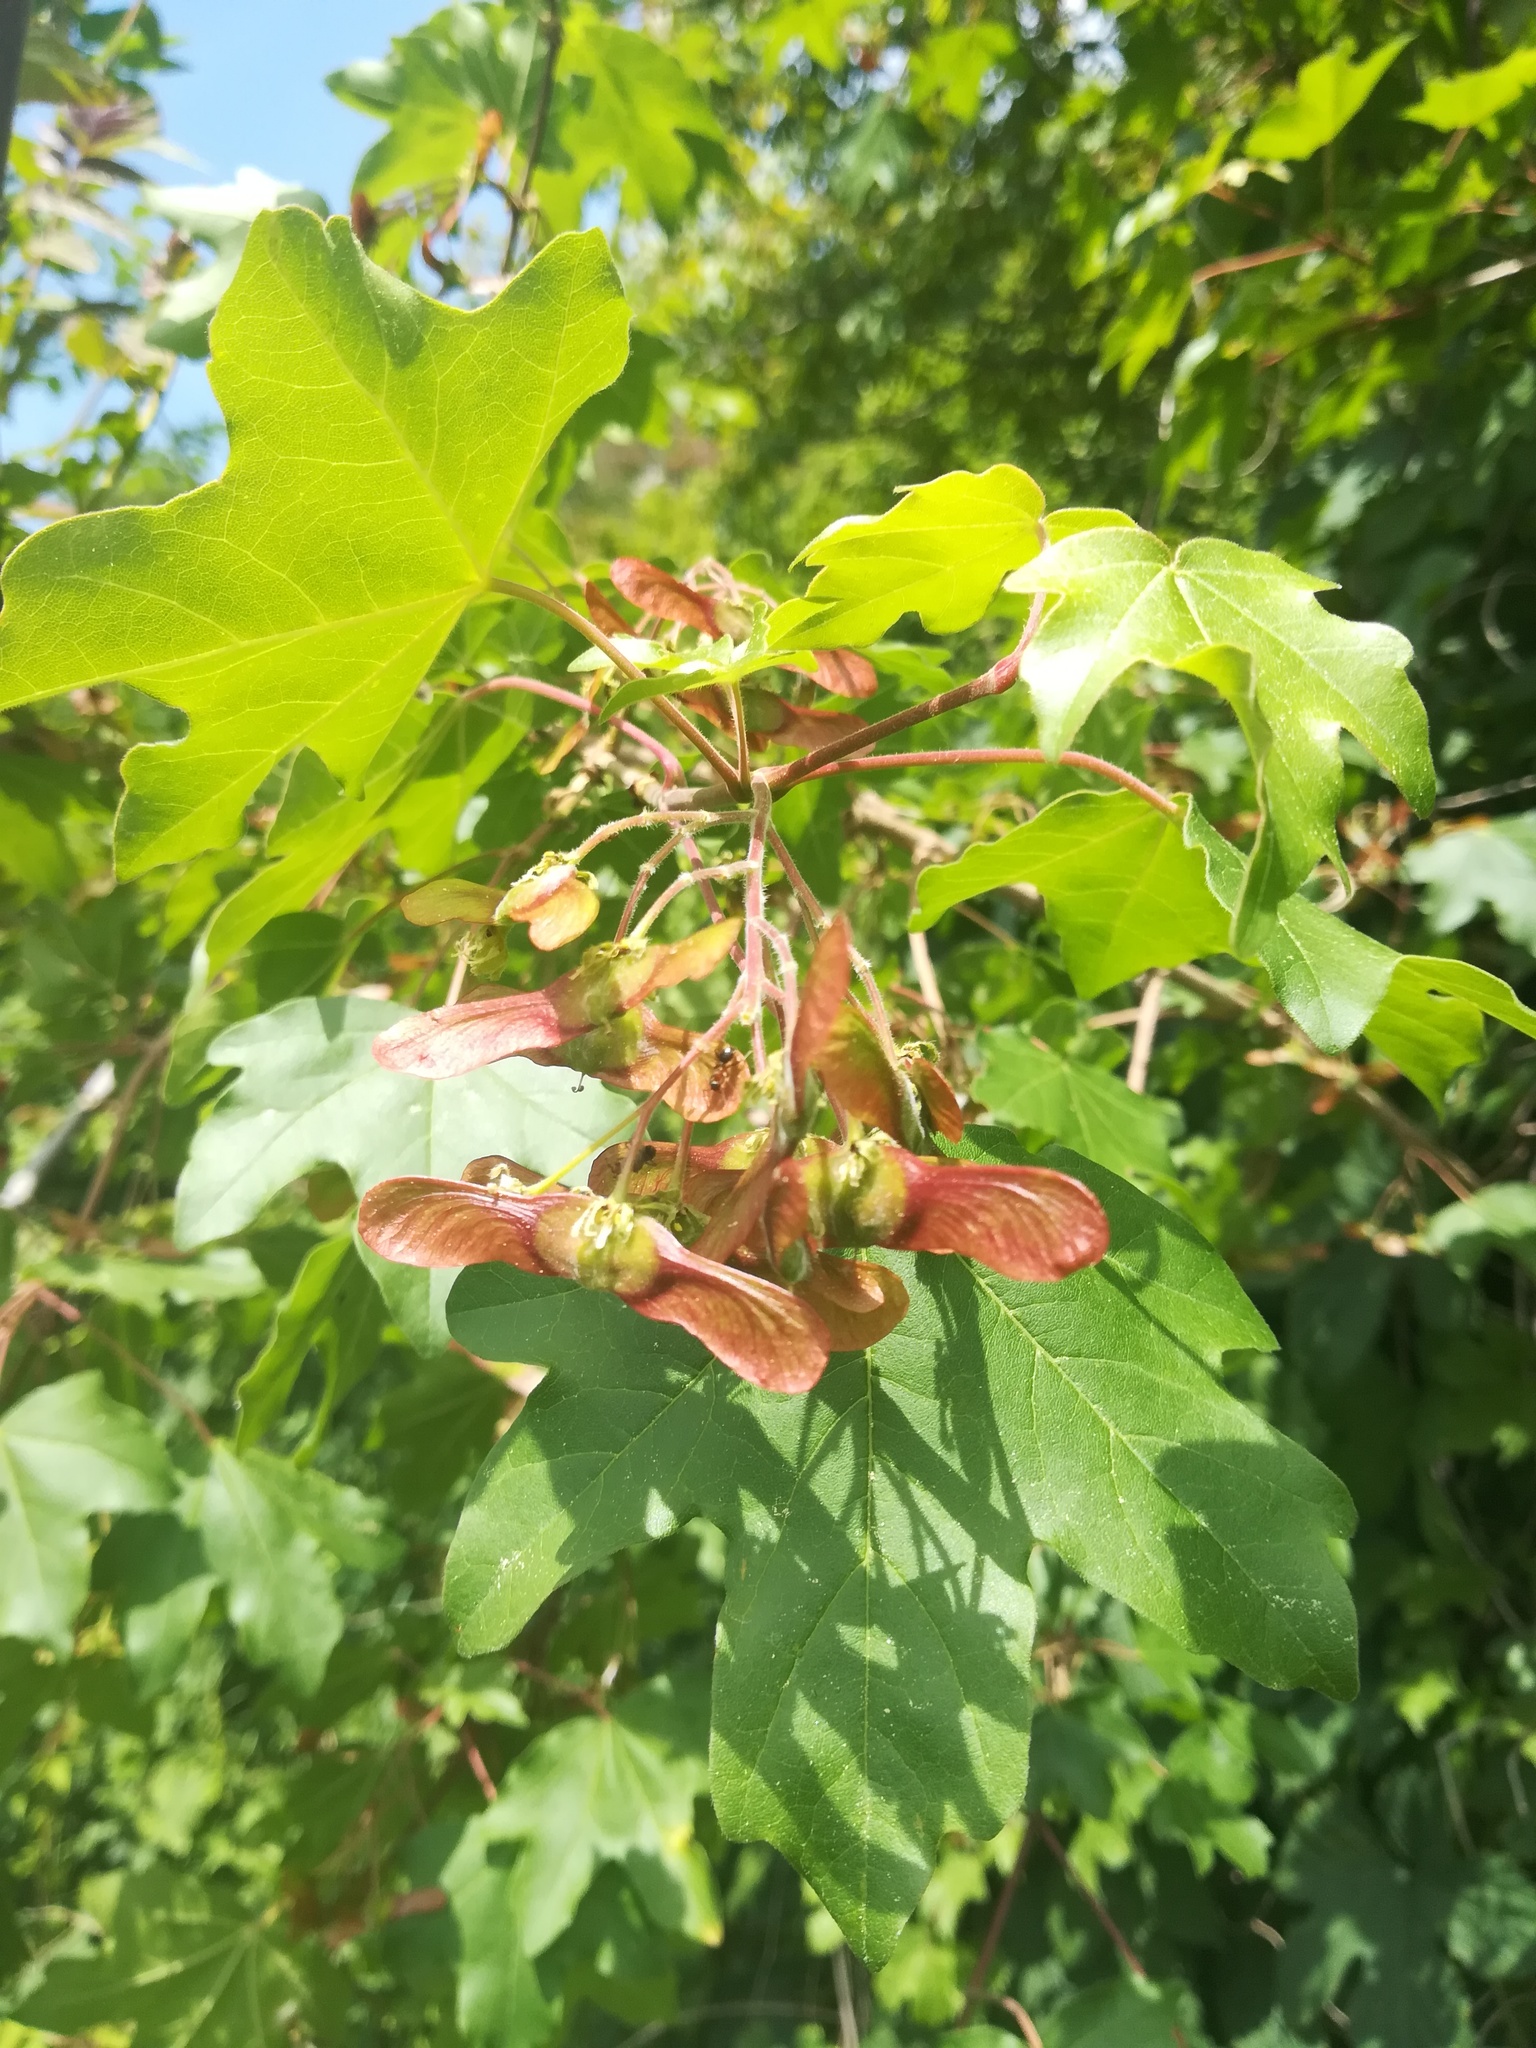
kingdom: Plantae
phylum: Tracheophyta
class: Magnoliopsida
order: Sapindales
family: Sapindaceae
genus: Acer
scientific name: Acer campestre
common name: Field maple
